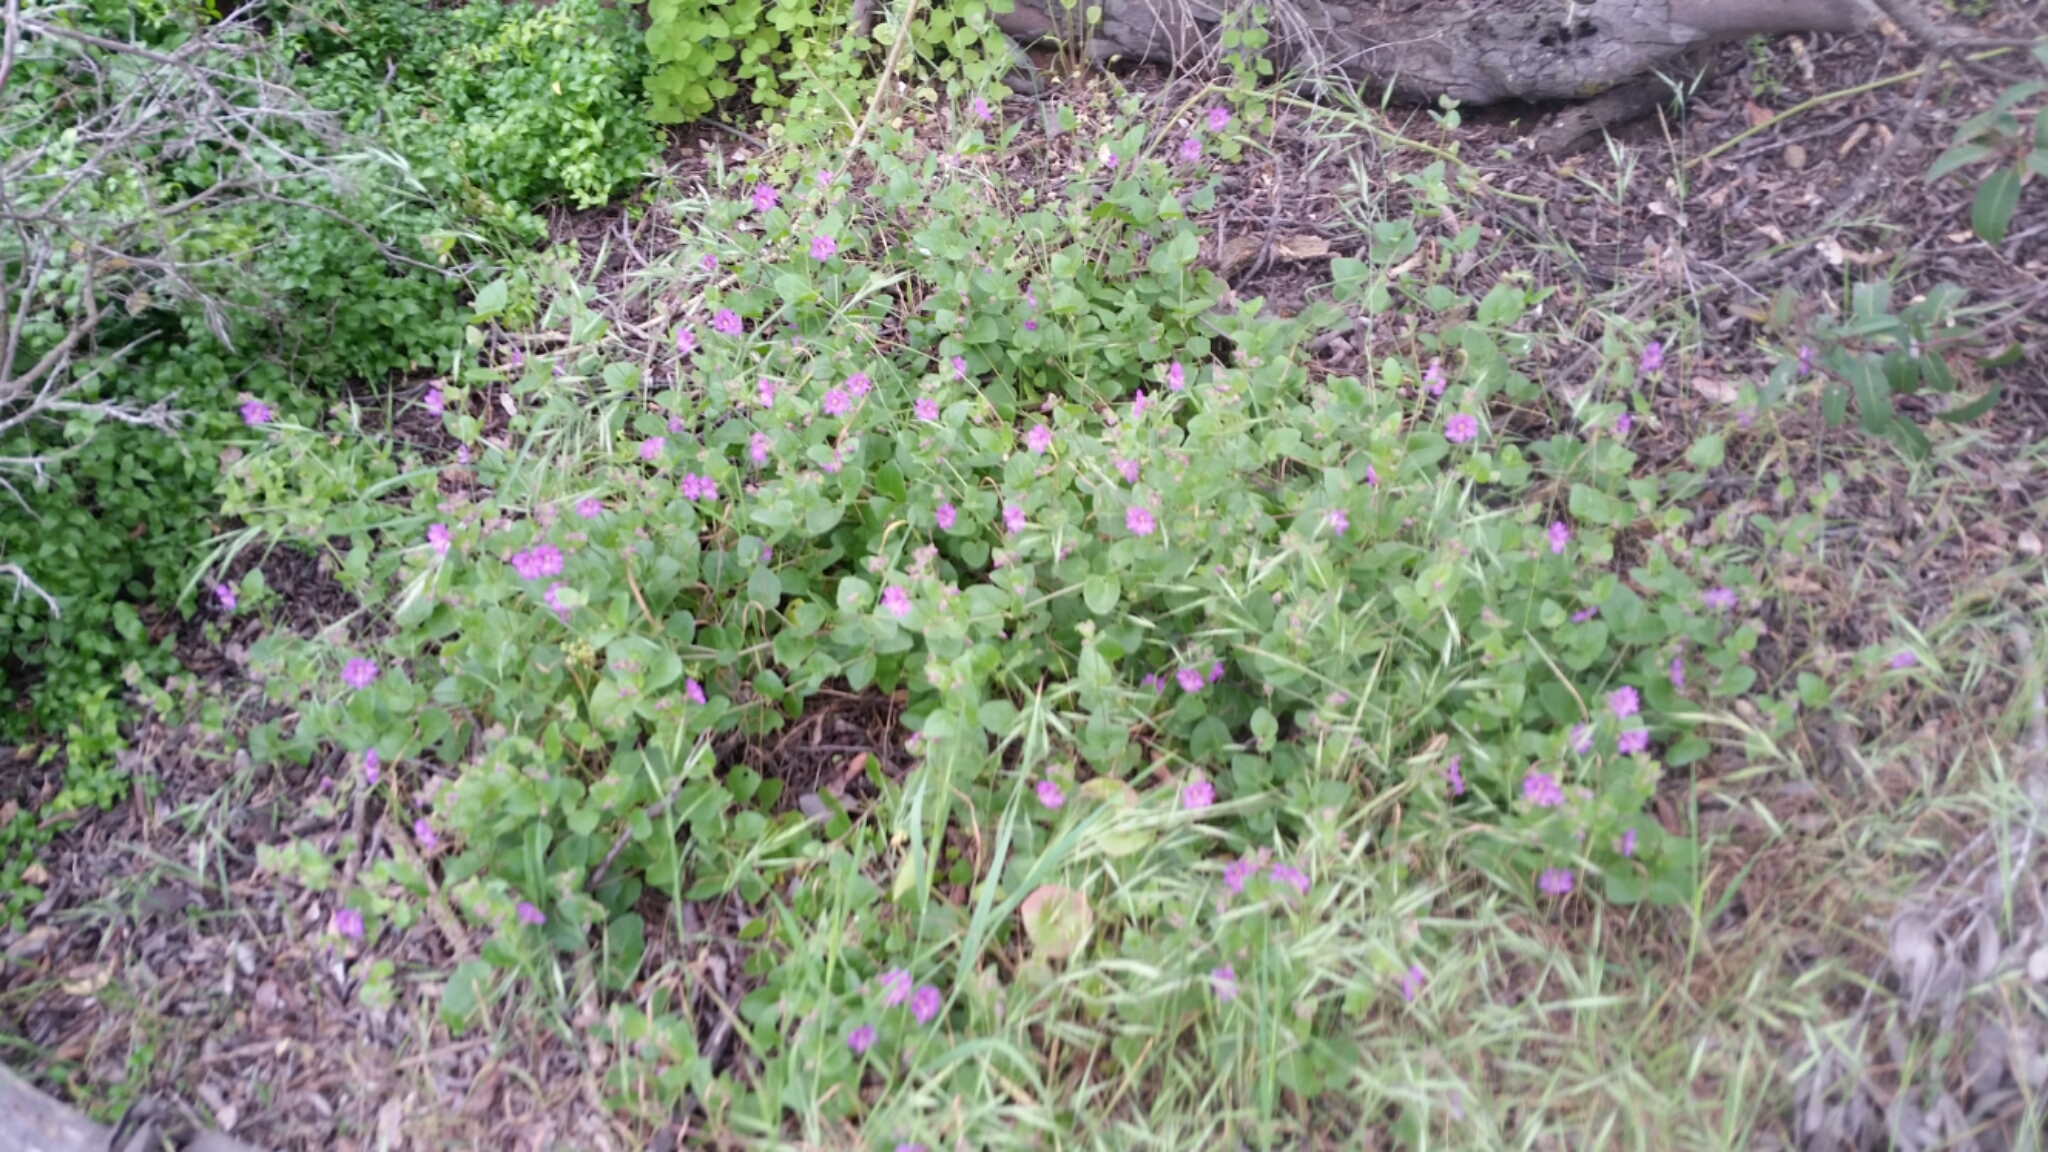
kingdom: Plantae
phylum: Tracheophyta
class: Magnoliopsida
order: Caryophyllales
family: Nyctaginaceae
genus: Mirabilis
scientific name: Mirabilis laevis
